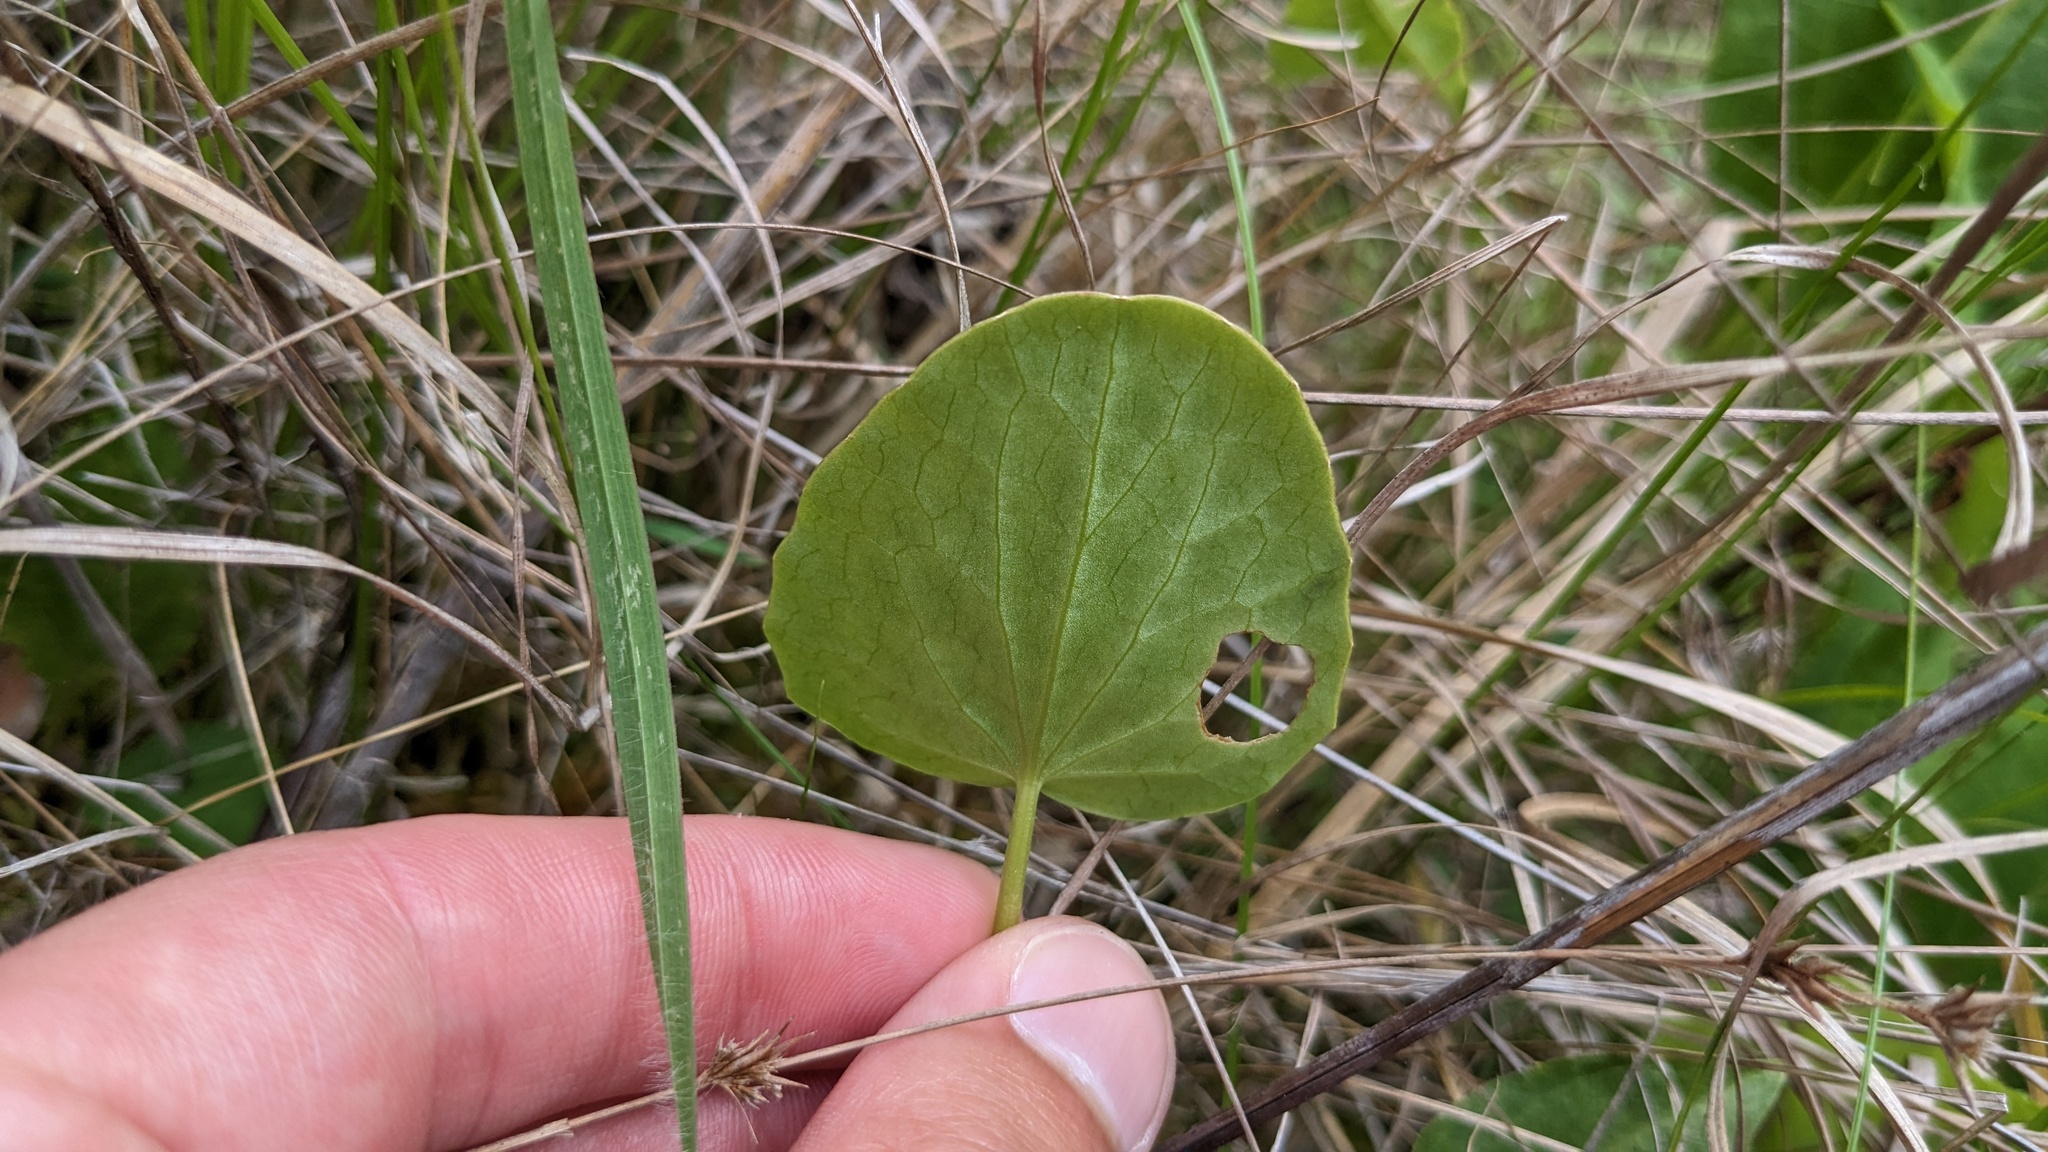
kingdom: Plantae
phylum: Tracheophyta
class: Magnoliopsida
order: Apiales
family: Apiaceae
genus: Centella
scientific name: Centella erecta
